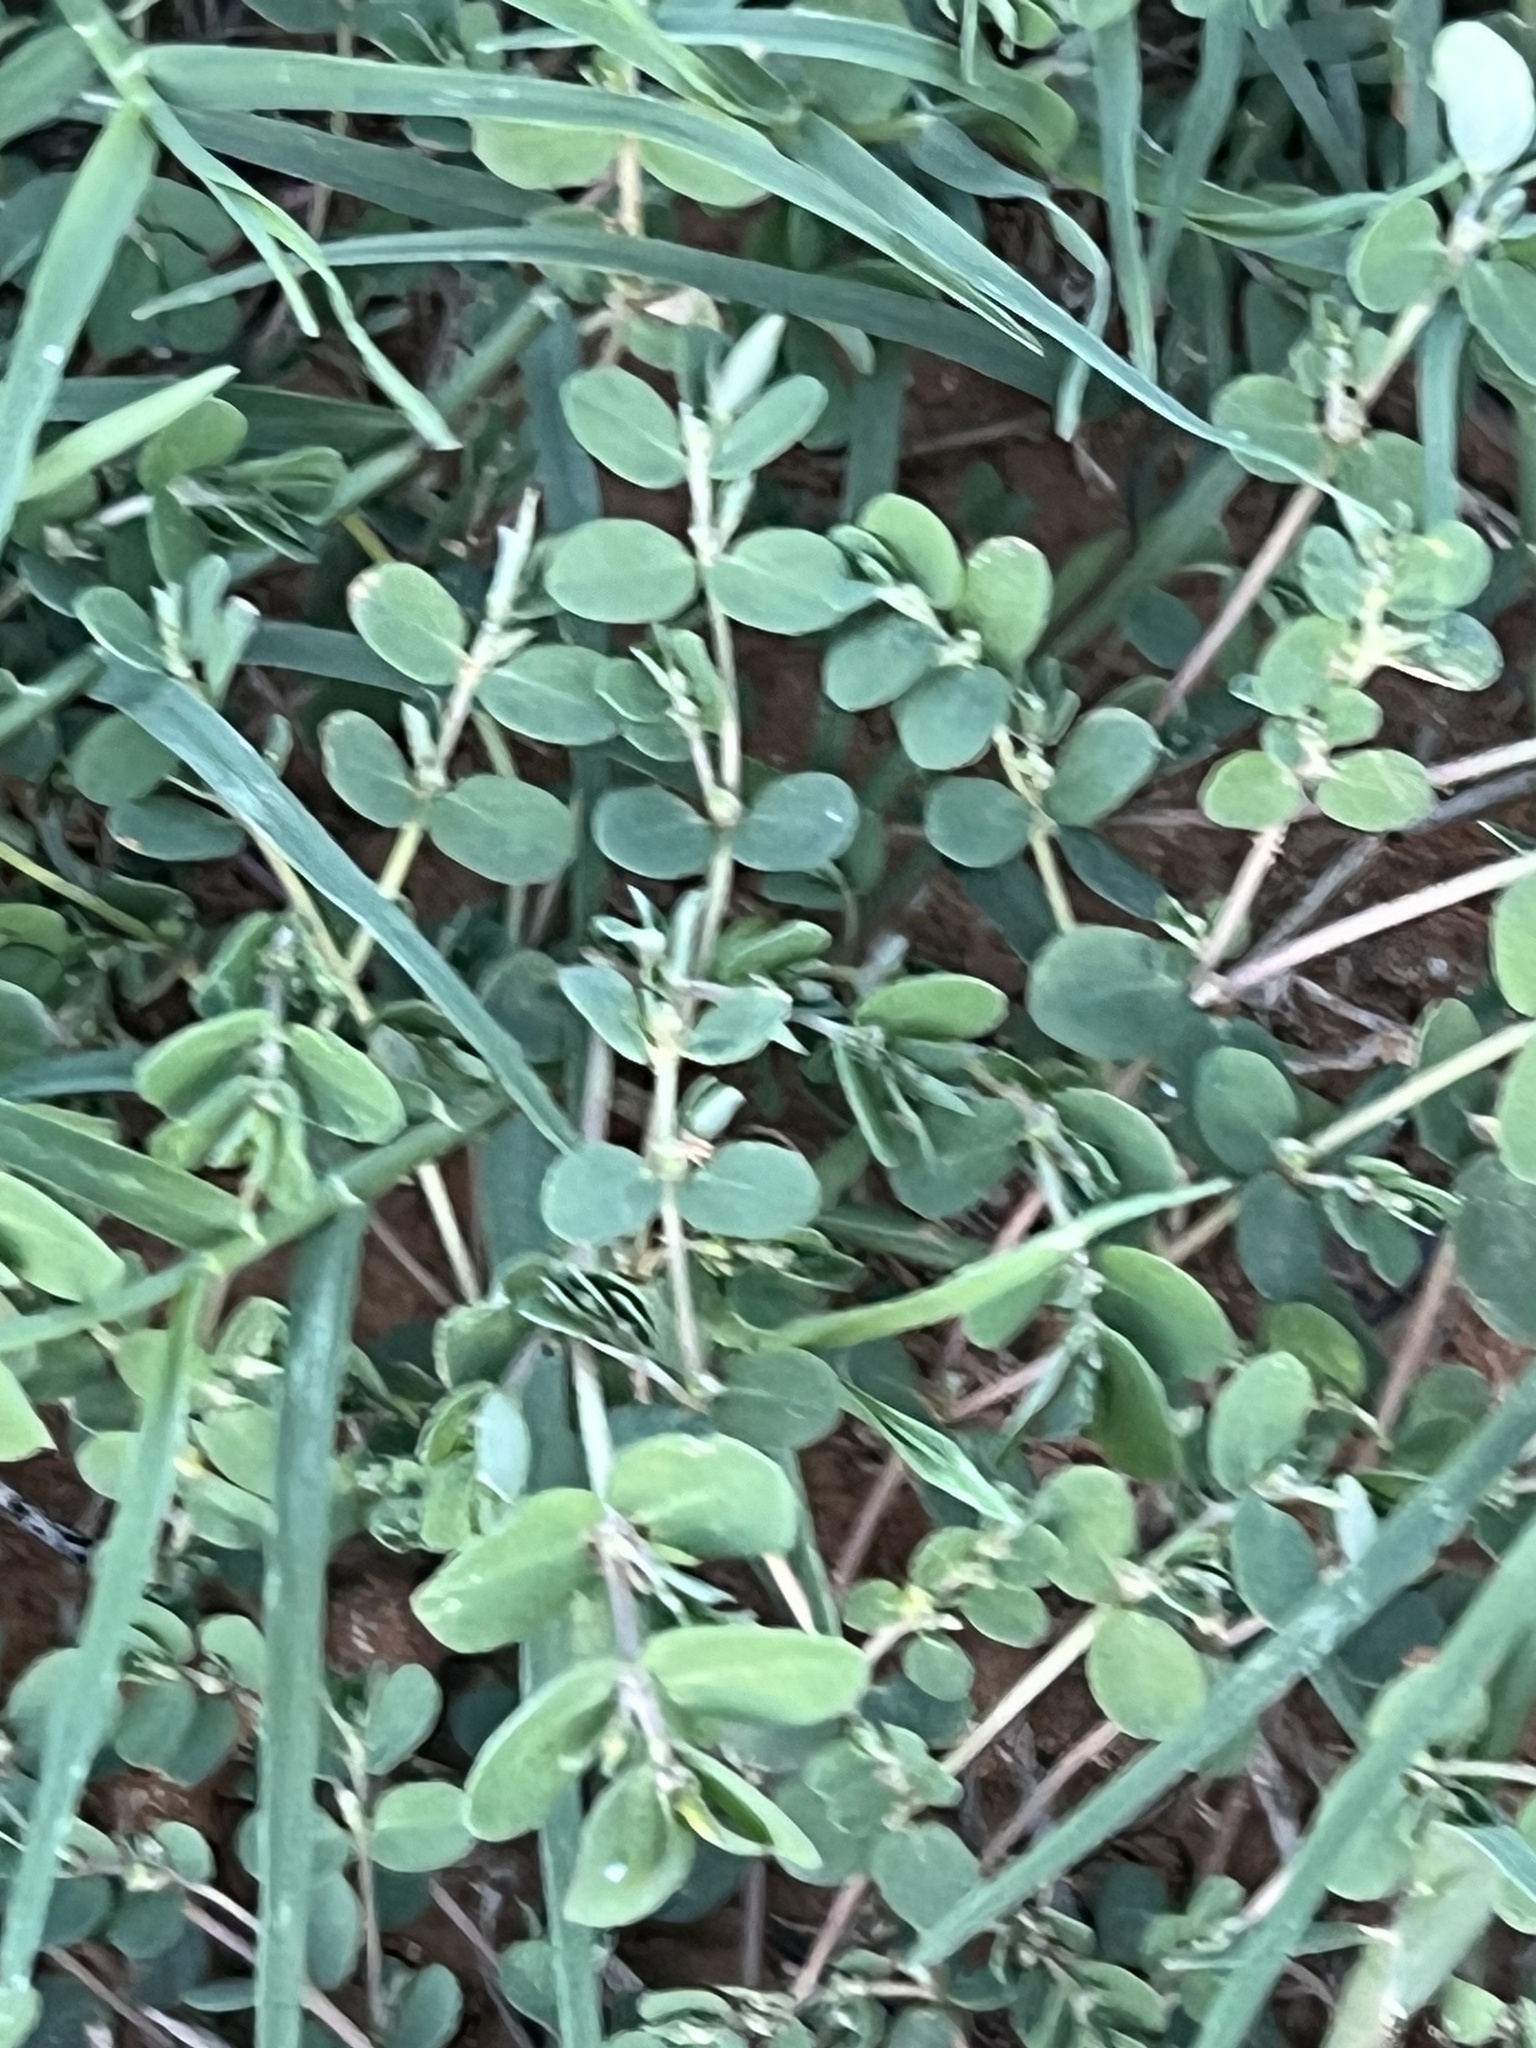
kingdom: Plantae
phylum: Tracheophyta
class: Magnoliopsida
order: Malpighiales
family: Euphorbiaceae
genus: Euphorbia
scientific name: Euphorbia prostrata
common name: Prostrate sandmat
